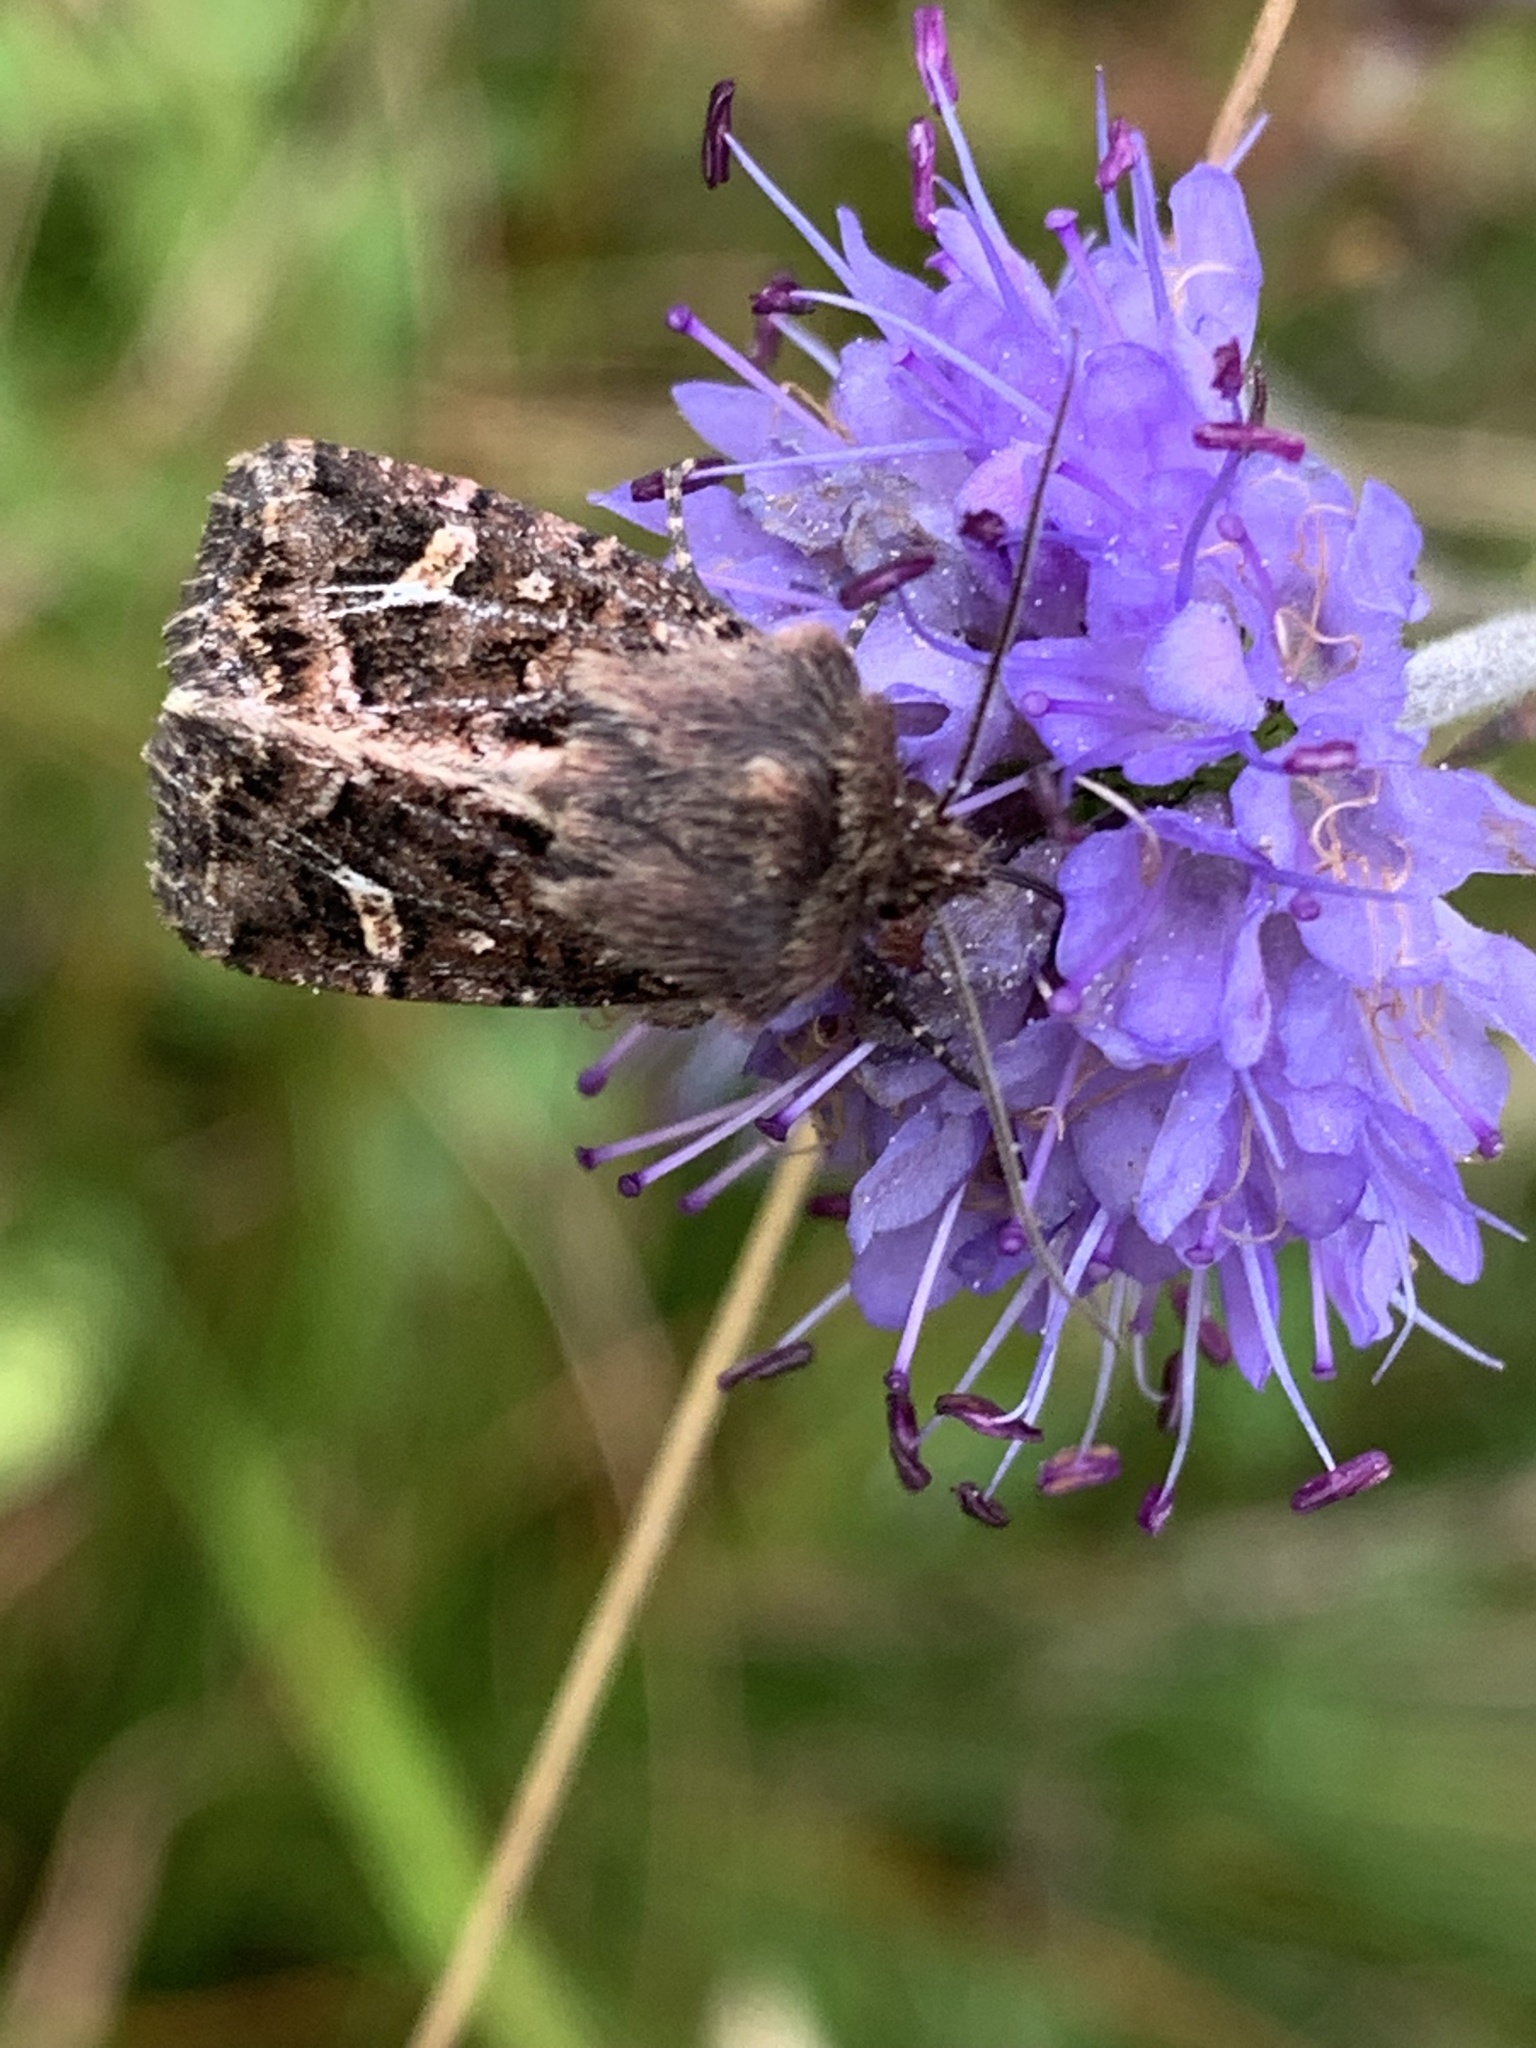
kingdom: Animalia
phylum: Arthropoda
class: Insecta
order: Lepidoptera
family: Noctuidae
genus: Celaena
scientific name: Celaena haworthii
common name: Haworth's minor
